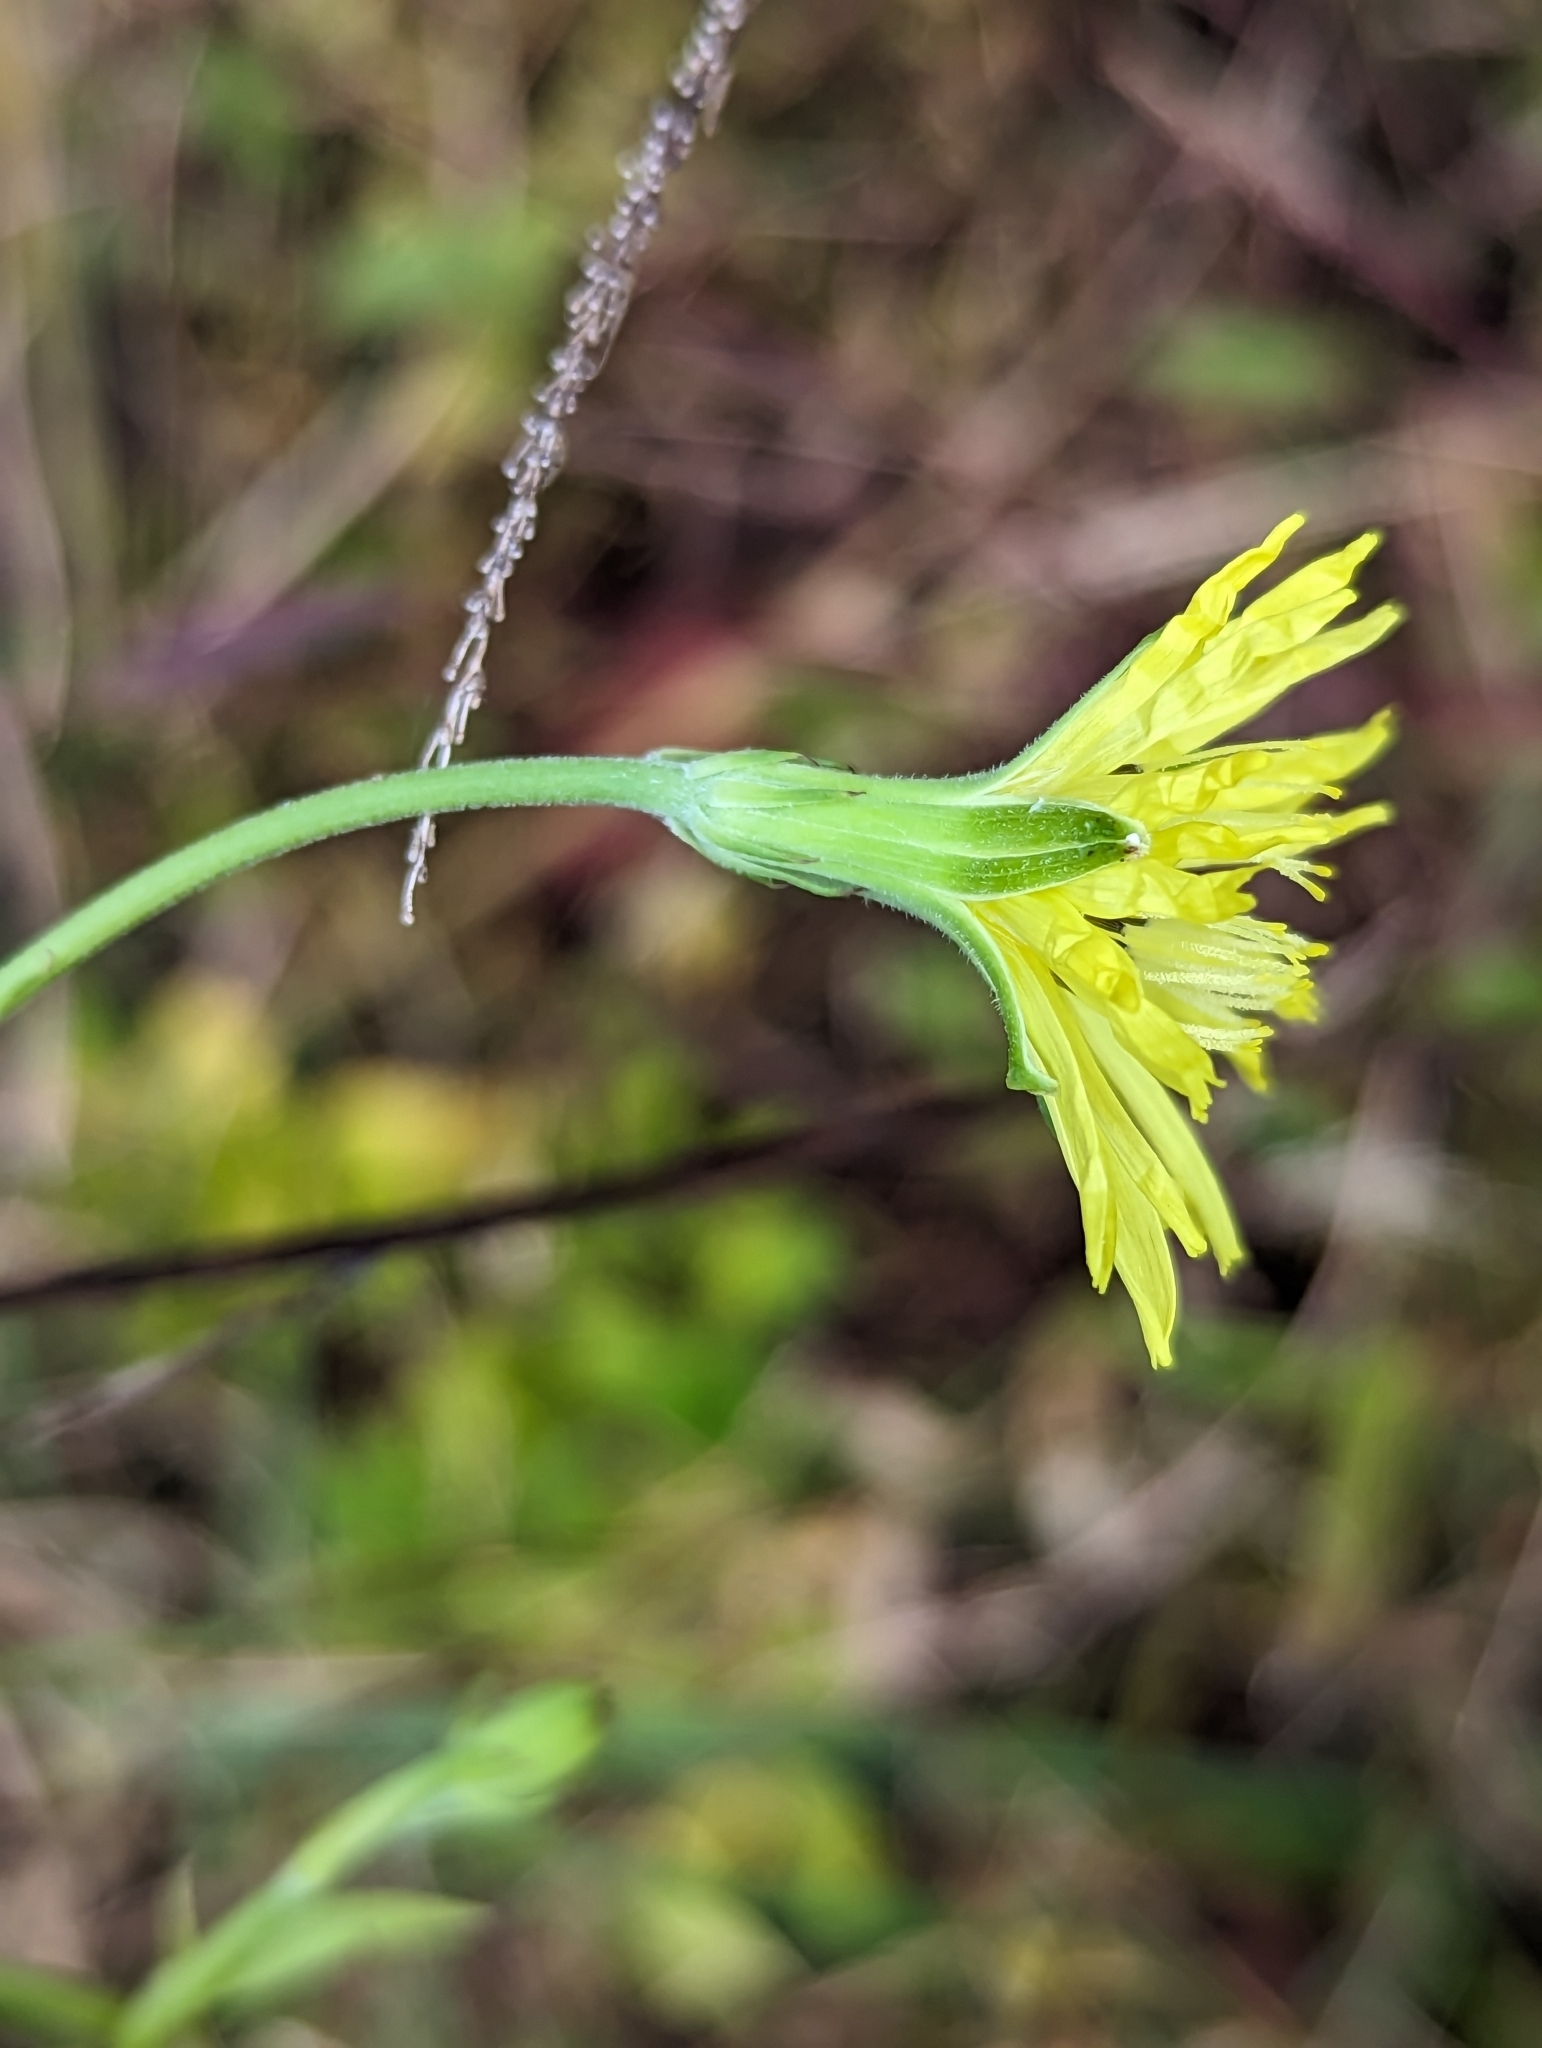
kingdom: Plantae
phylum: Tracheophyta
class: Magnoliopsida
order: Asterales
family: Asteraceae
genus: Pyrrhopappus
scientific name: Pyrrhopappus carolinianus
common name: Carolina desert-chicory
